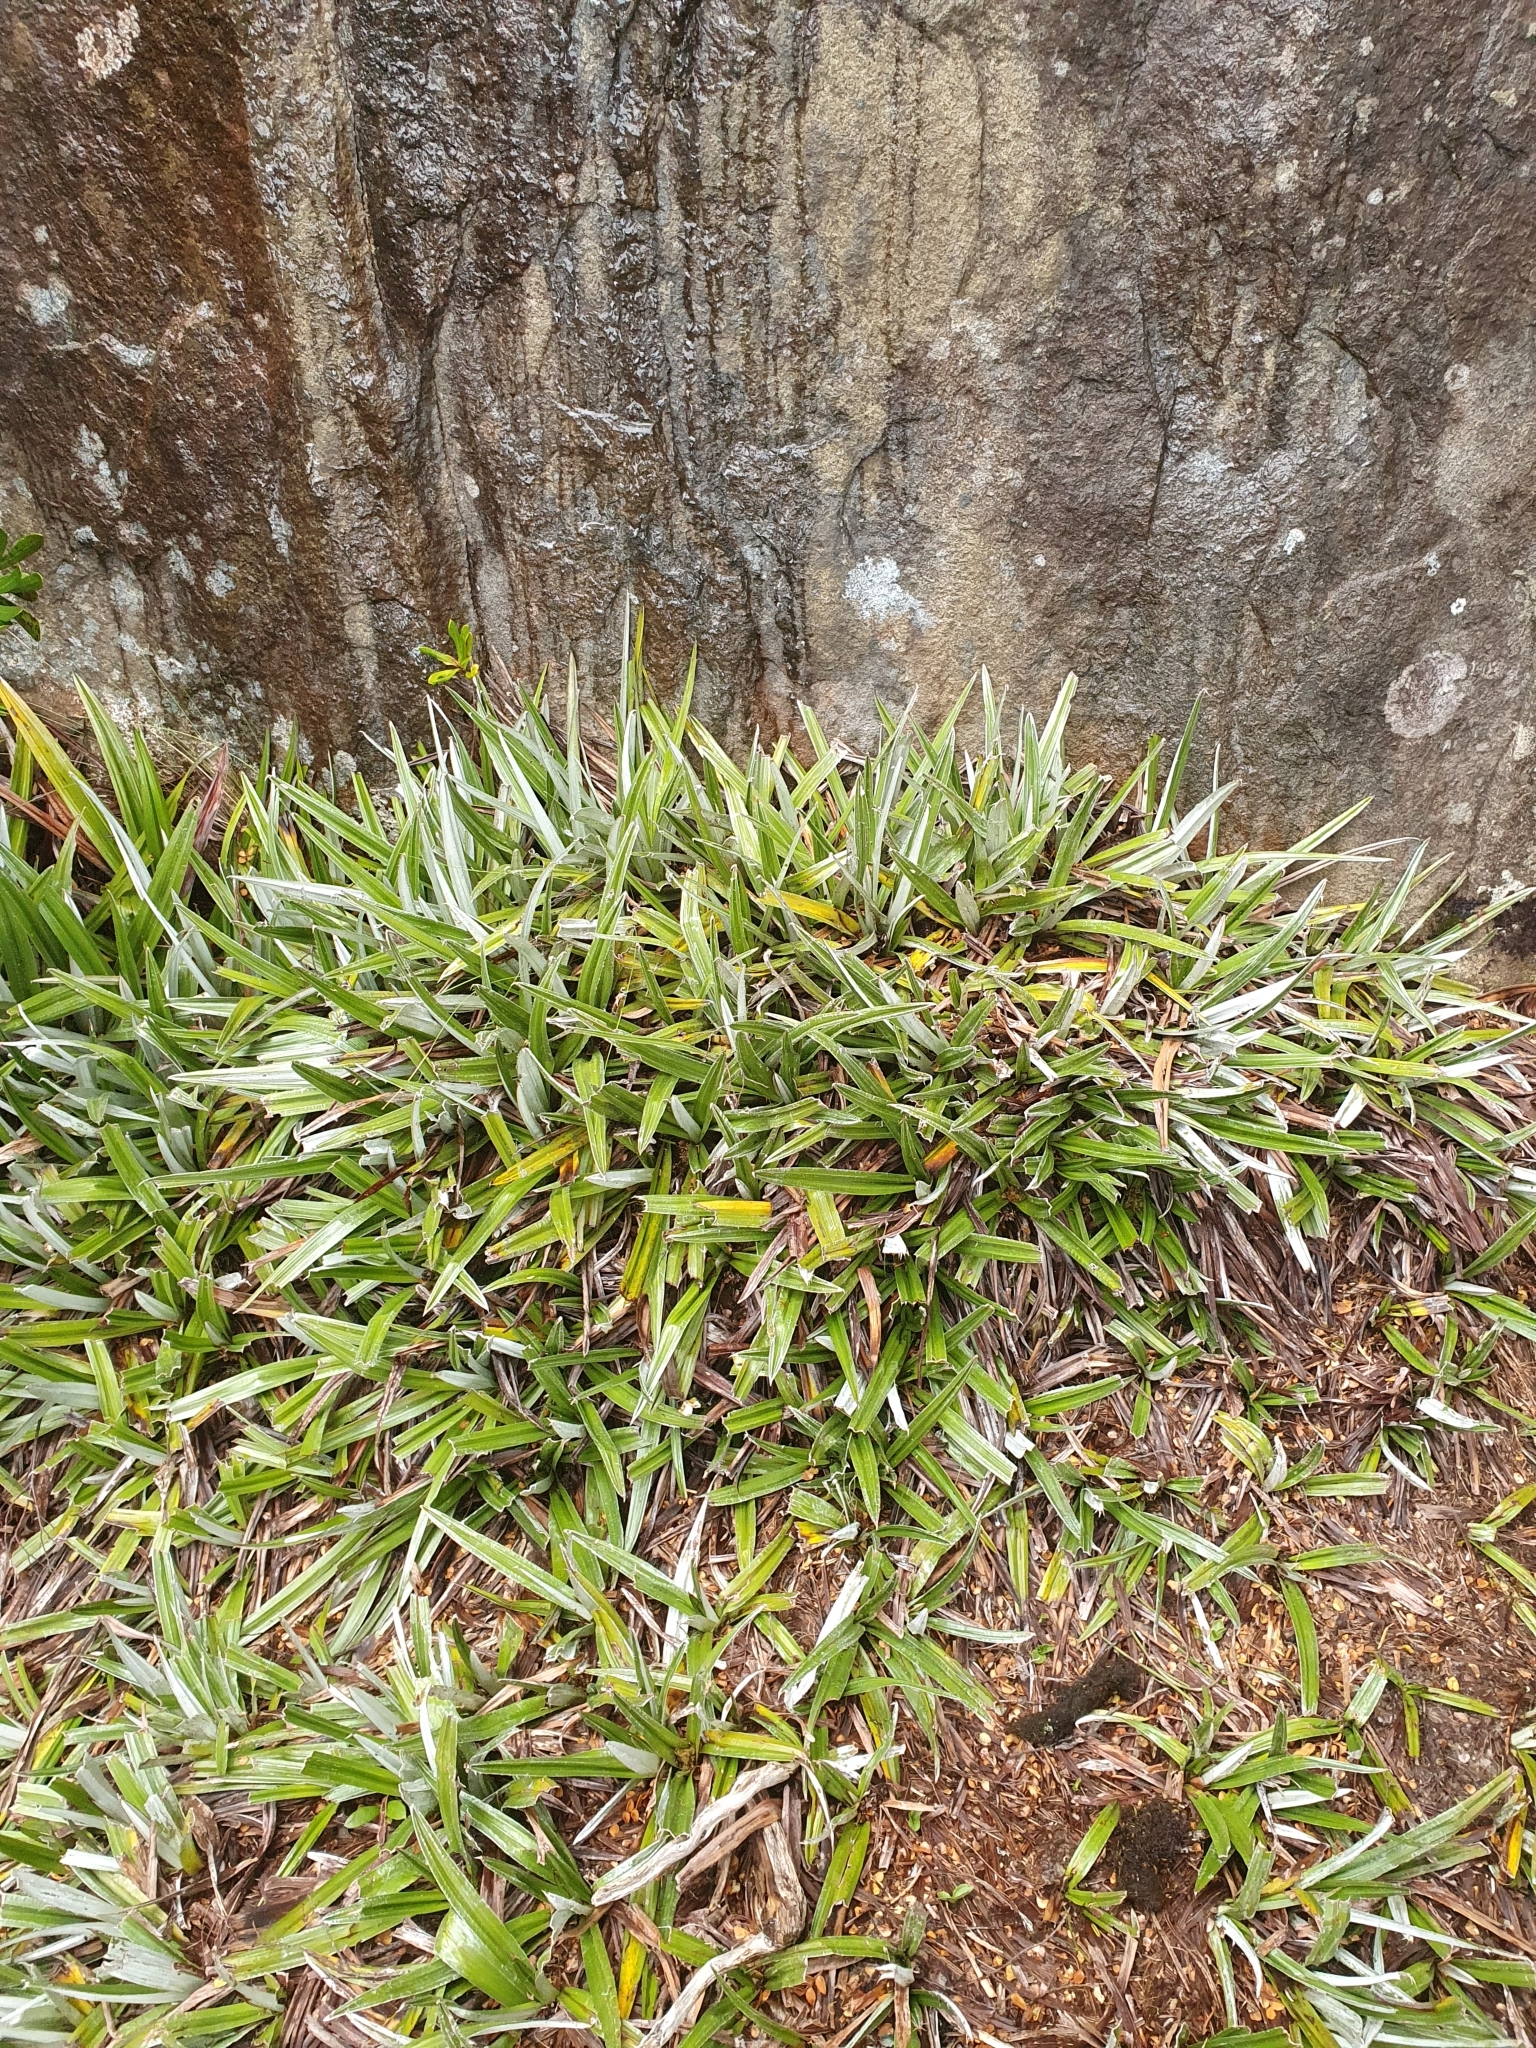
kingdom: Plantae
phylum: Tracheophyta
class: Liliopsida
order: Asparagales
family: Asteliaceae
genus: Astelia
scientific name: Astelia alpina
